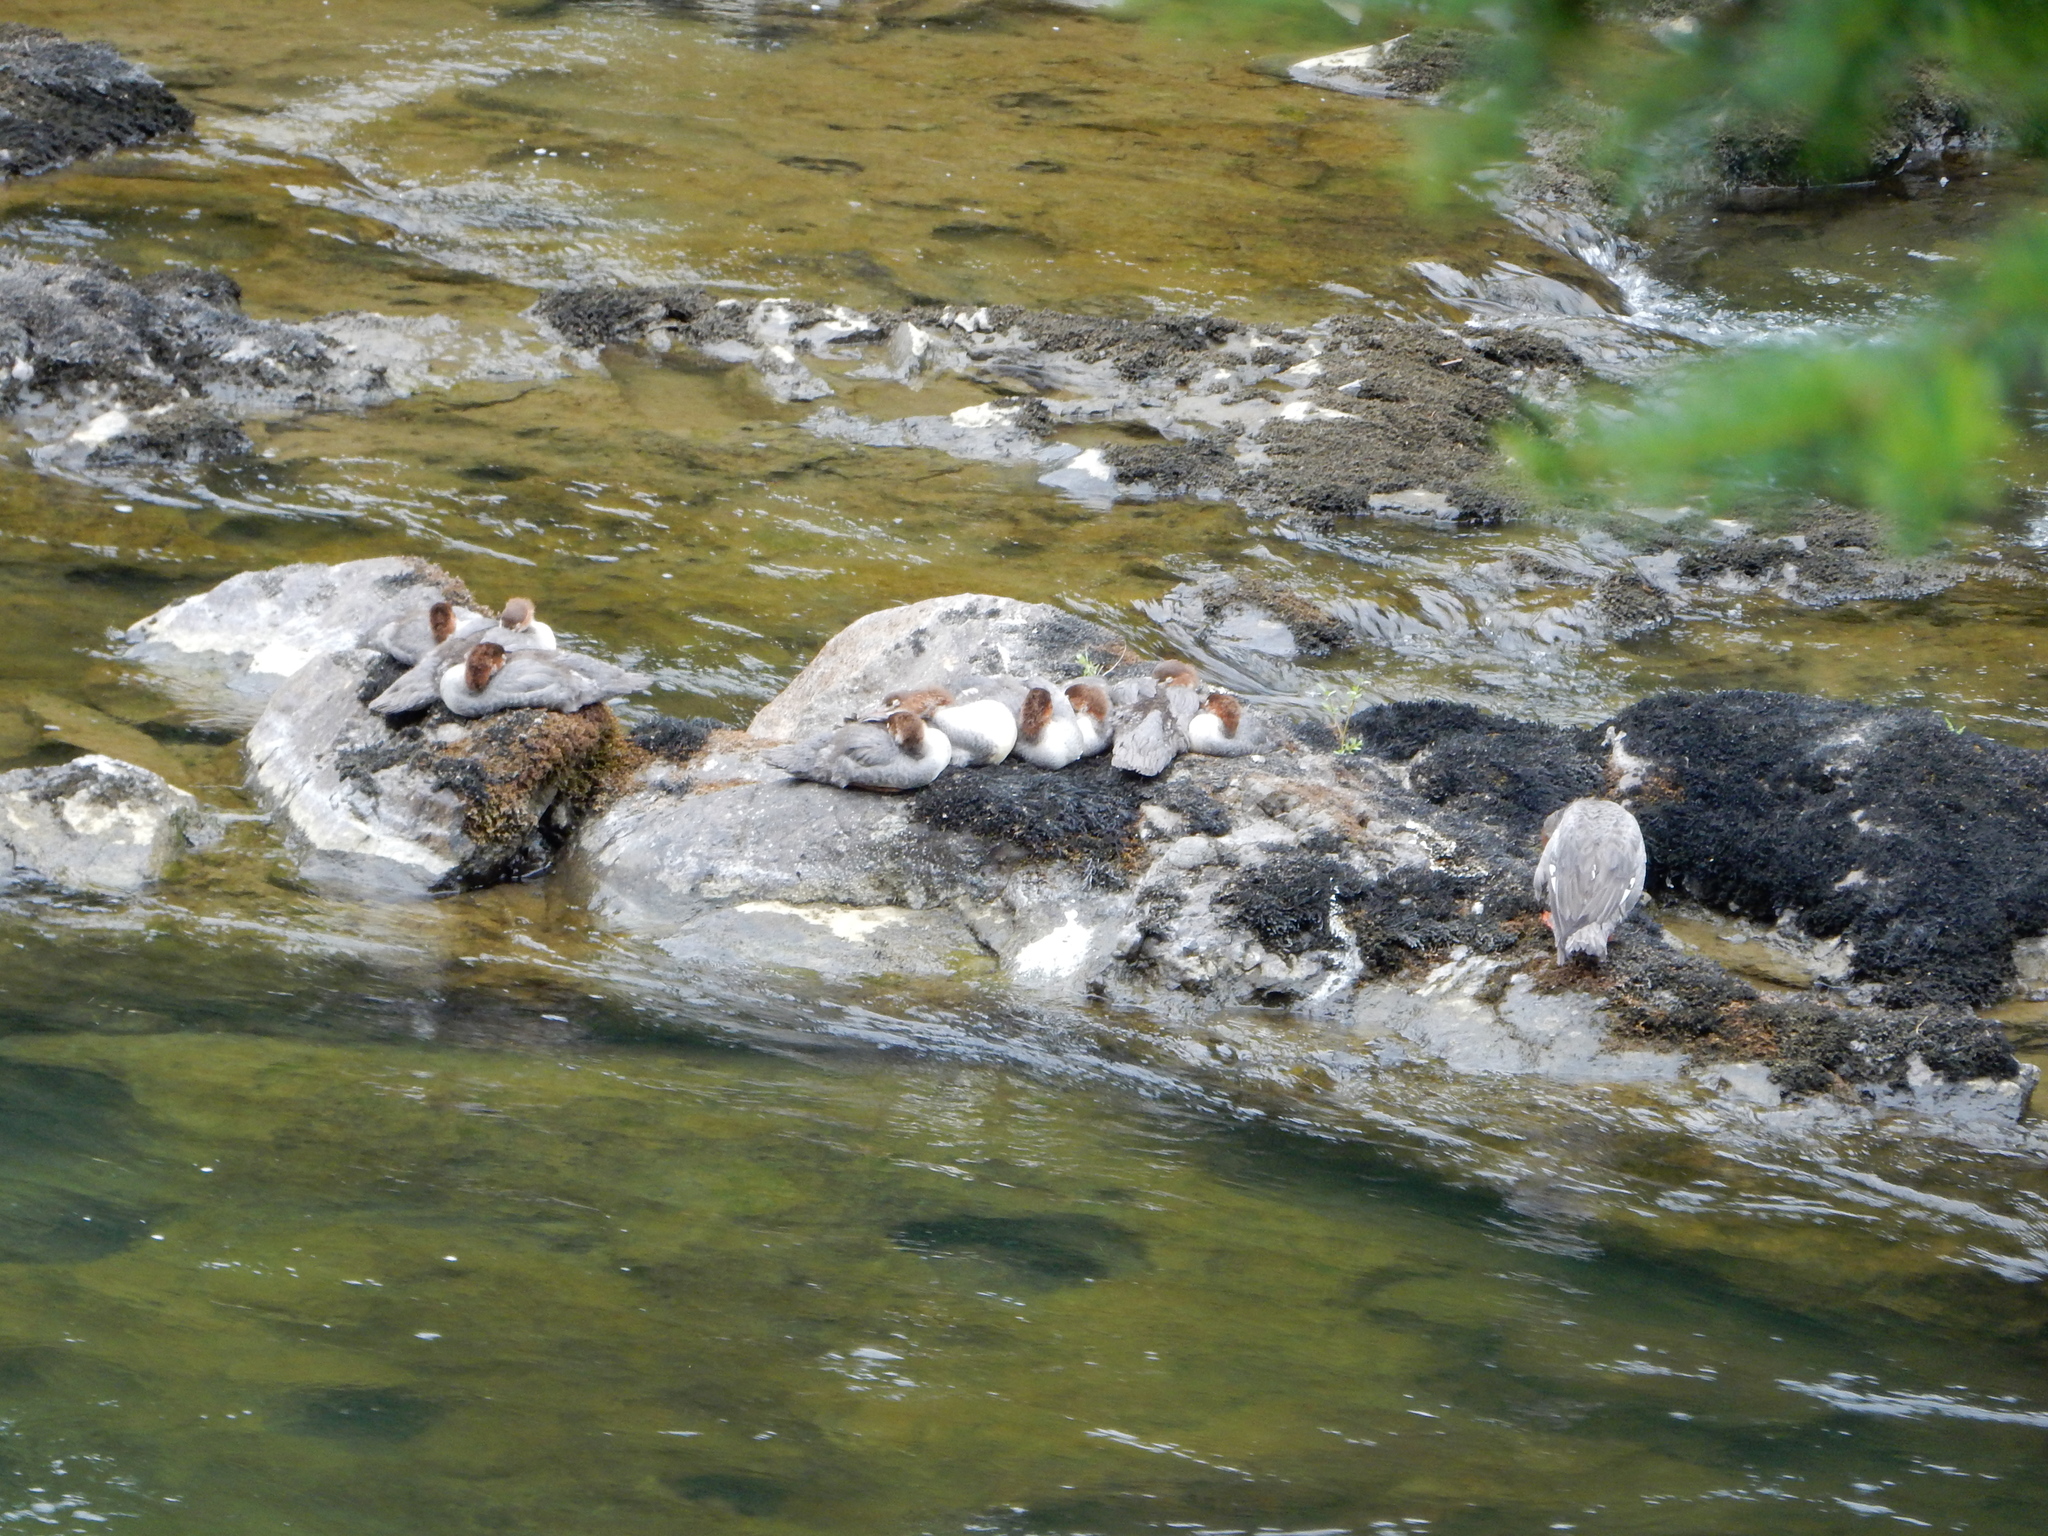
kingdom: Animalia
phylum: Chordata
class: Aves
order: Anseriformes
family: Anatidae
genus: Mergus
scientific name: Mergus merganser
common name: Common merganser
